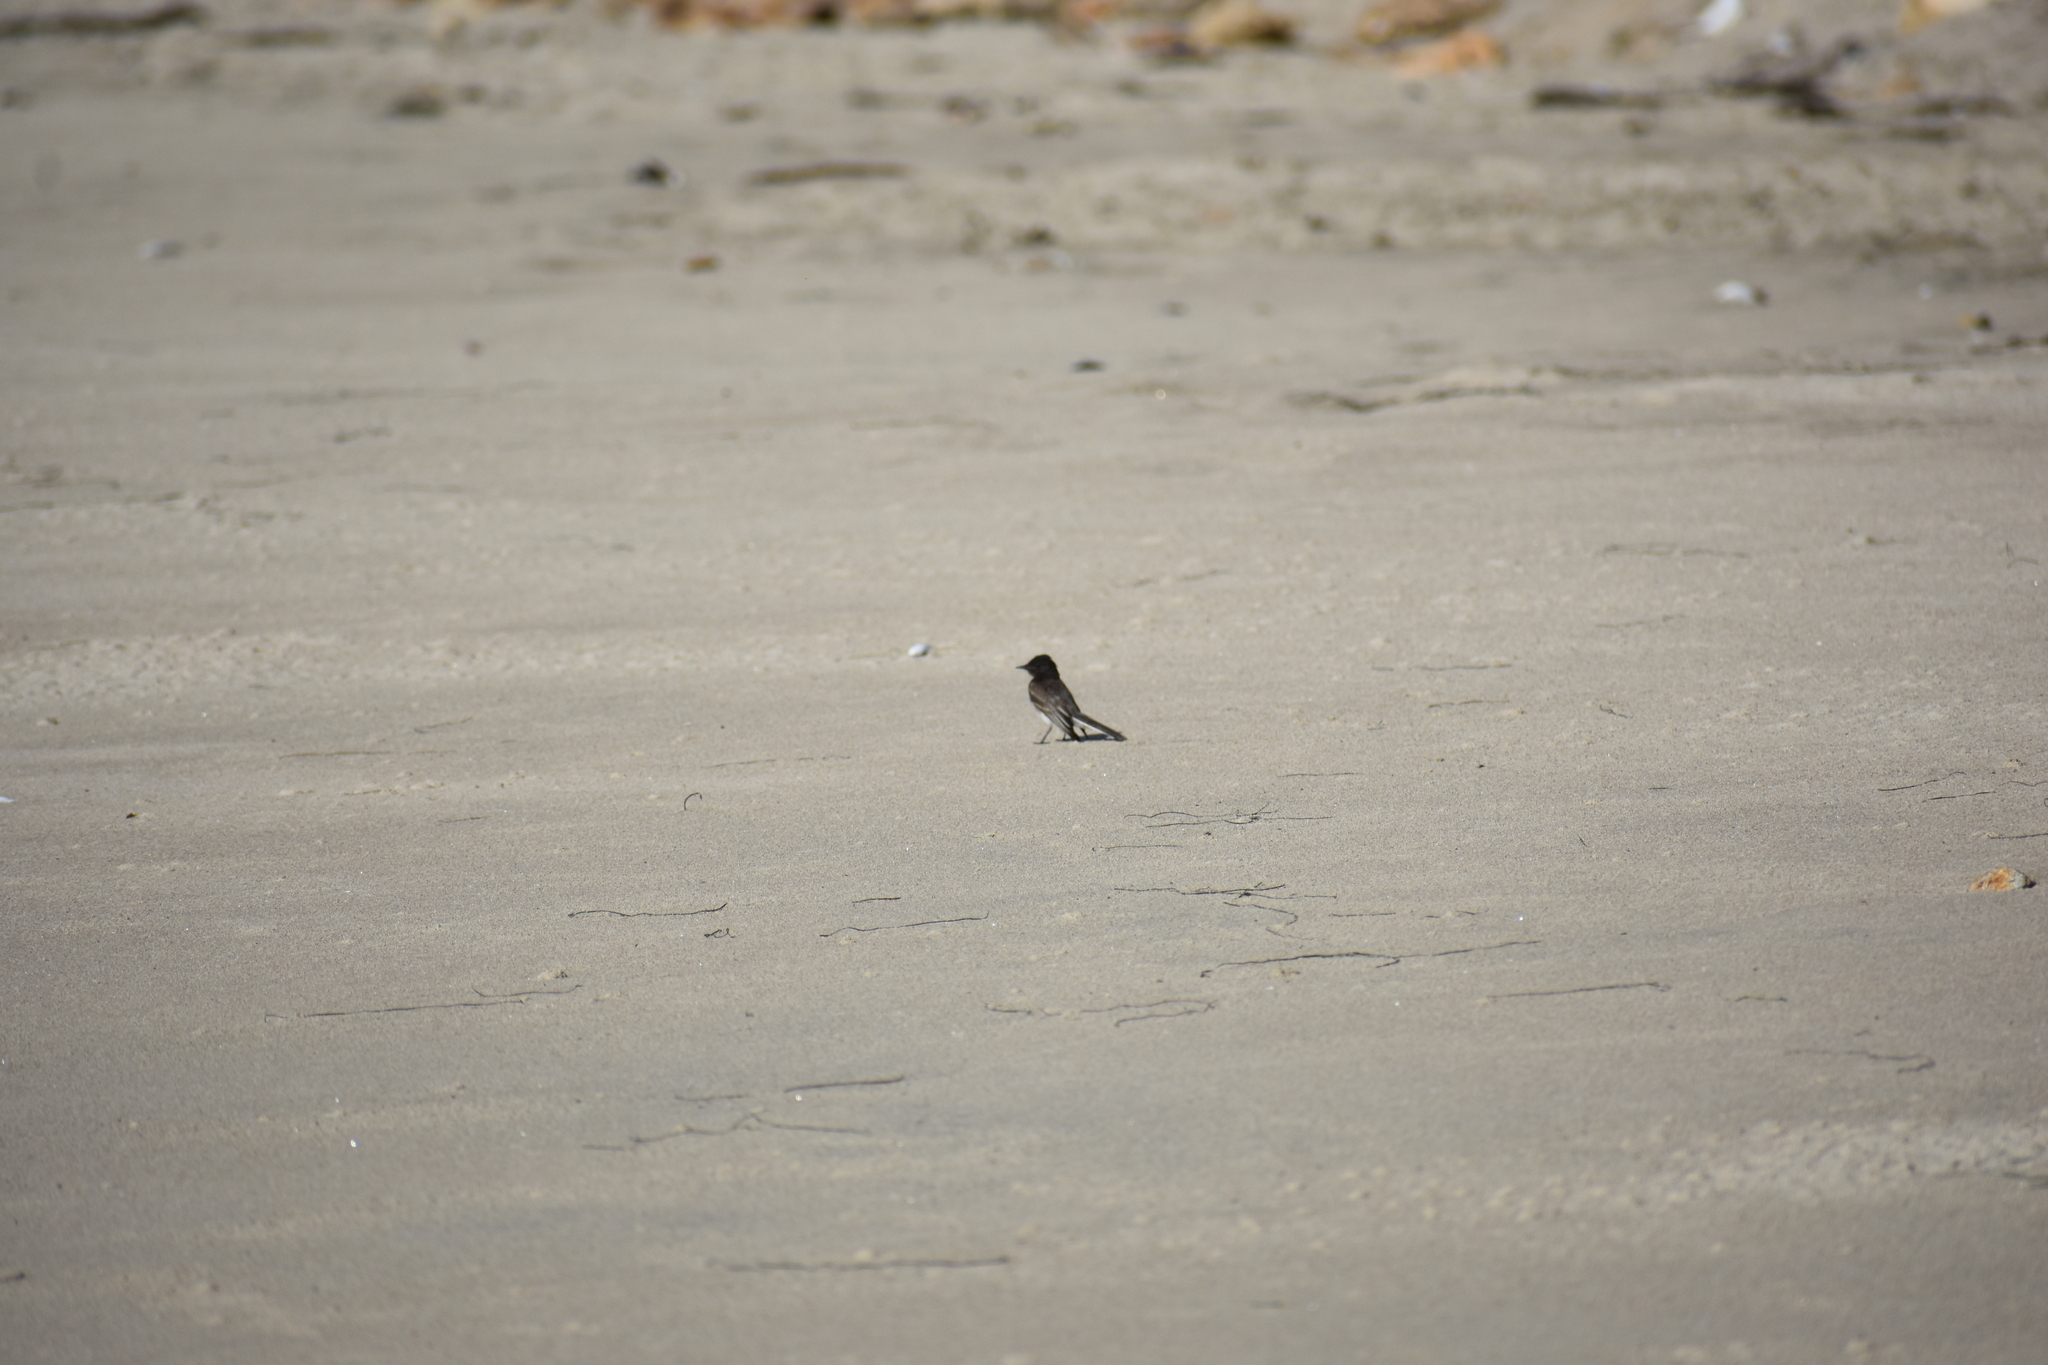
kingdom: Animalia
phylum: Chordata
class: Aves
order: Passeriformes
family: Tyrannidae
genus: Sayornis
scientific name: Sayornis nigricans
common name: Black phoebe
